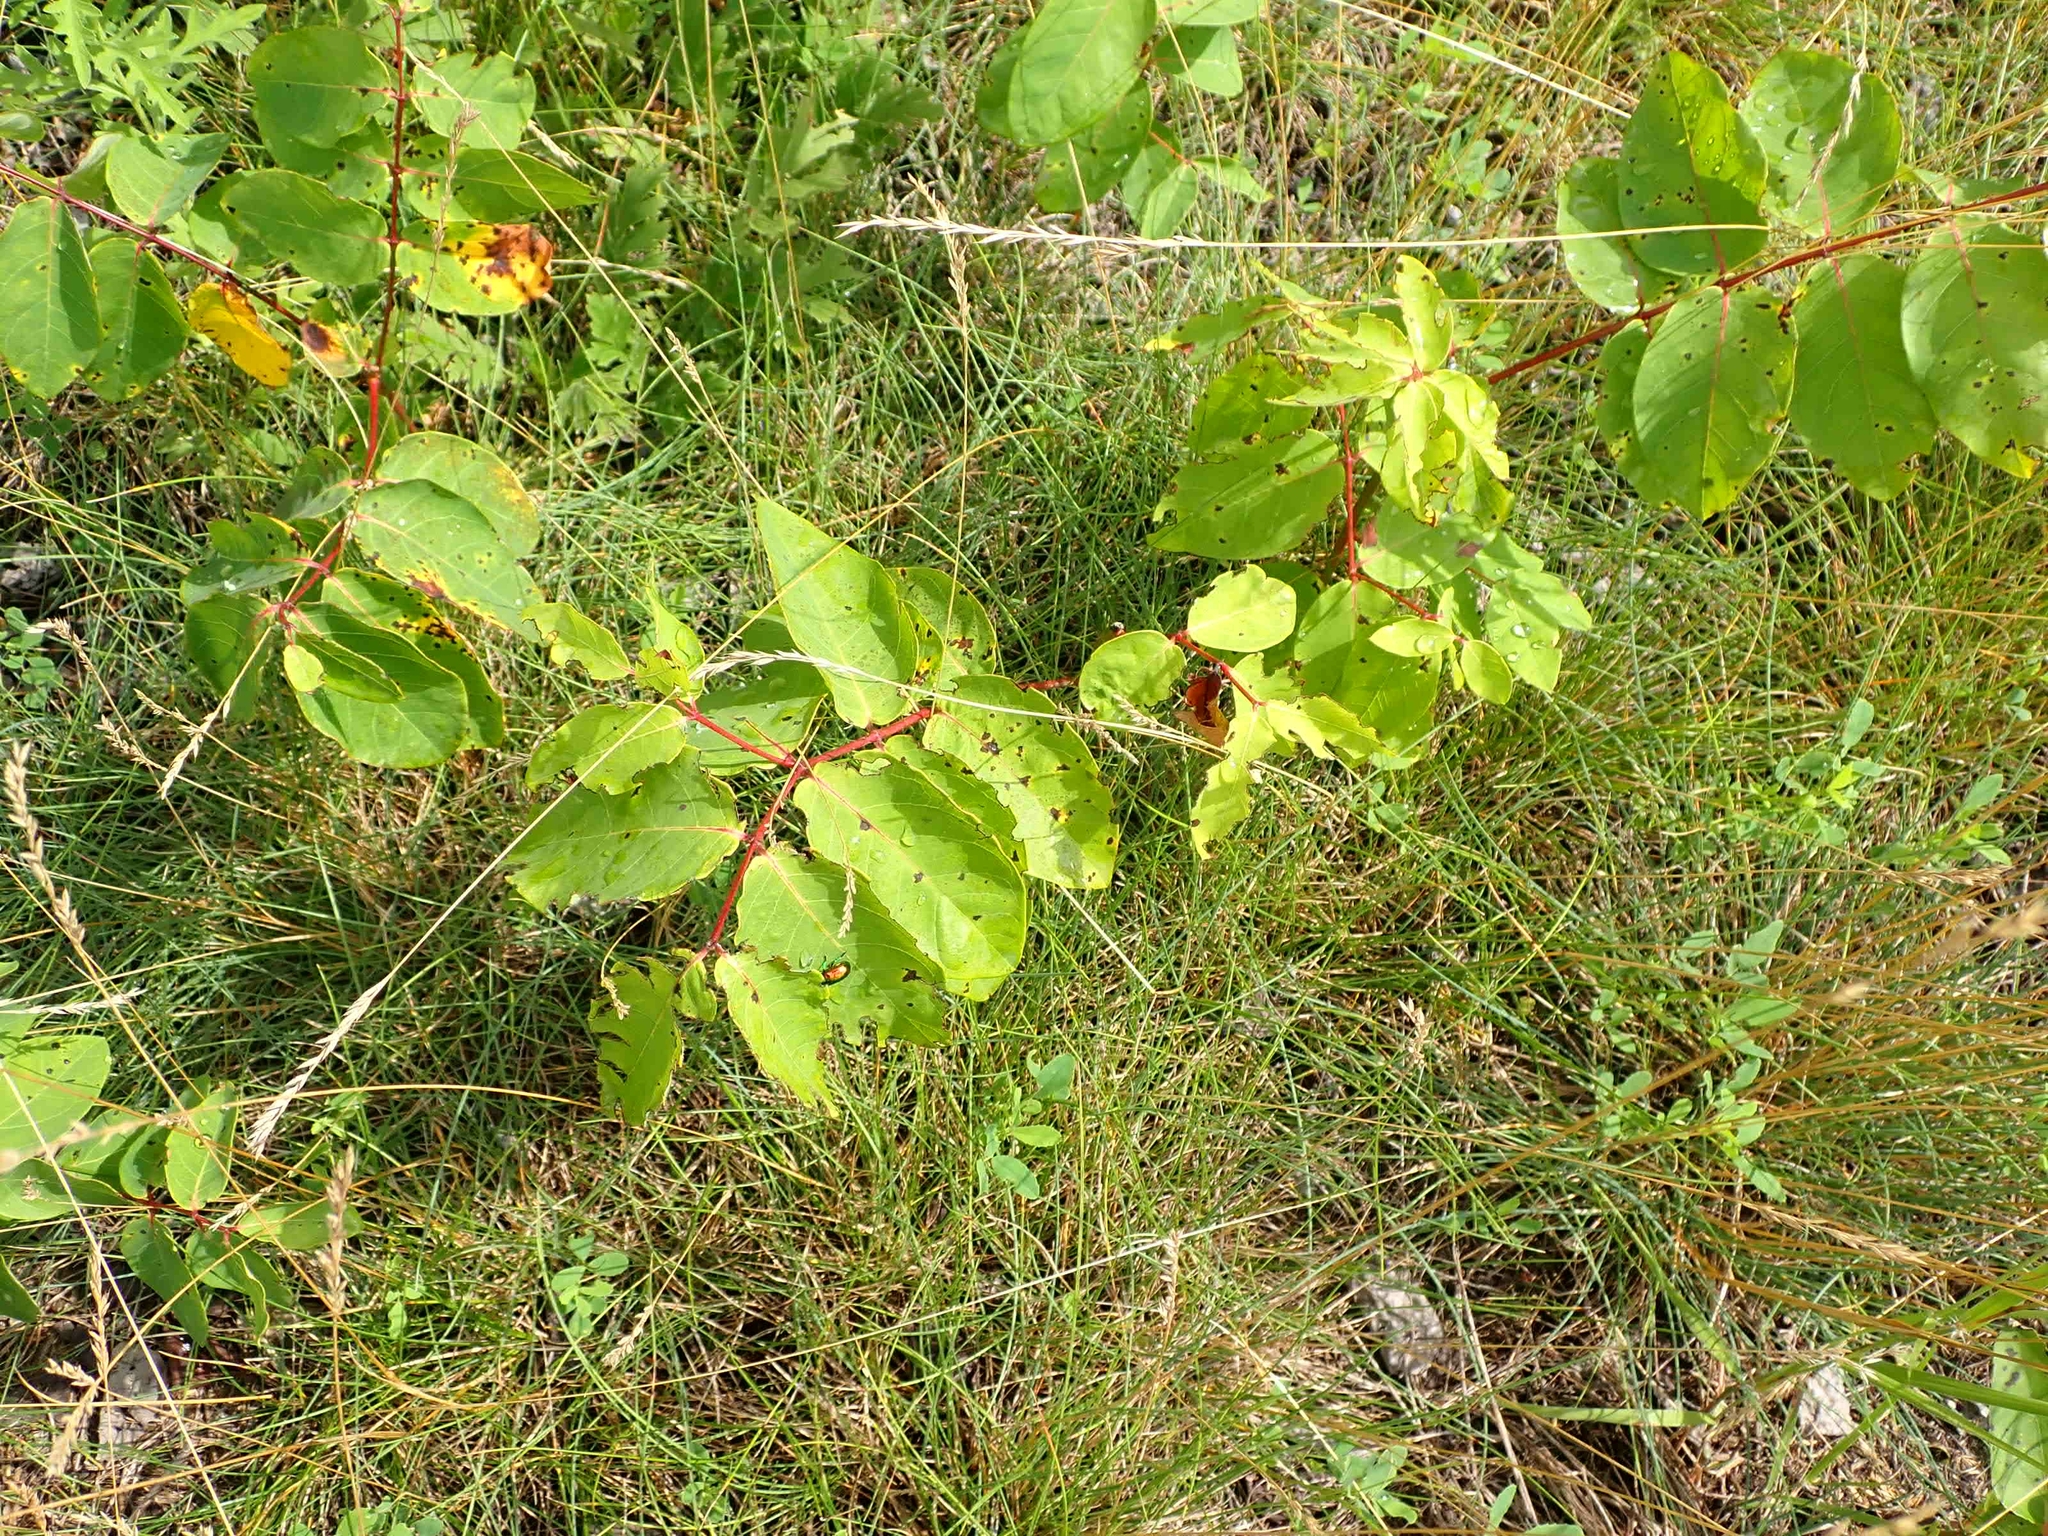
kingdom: Plantae
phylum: Tracheophyta
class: Magnoliopsida
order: Gentianales
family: Apocynaceae
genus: Apocynum
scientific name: Apocynum androsaemifolium
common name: Spreading dogbane
